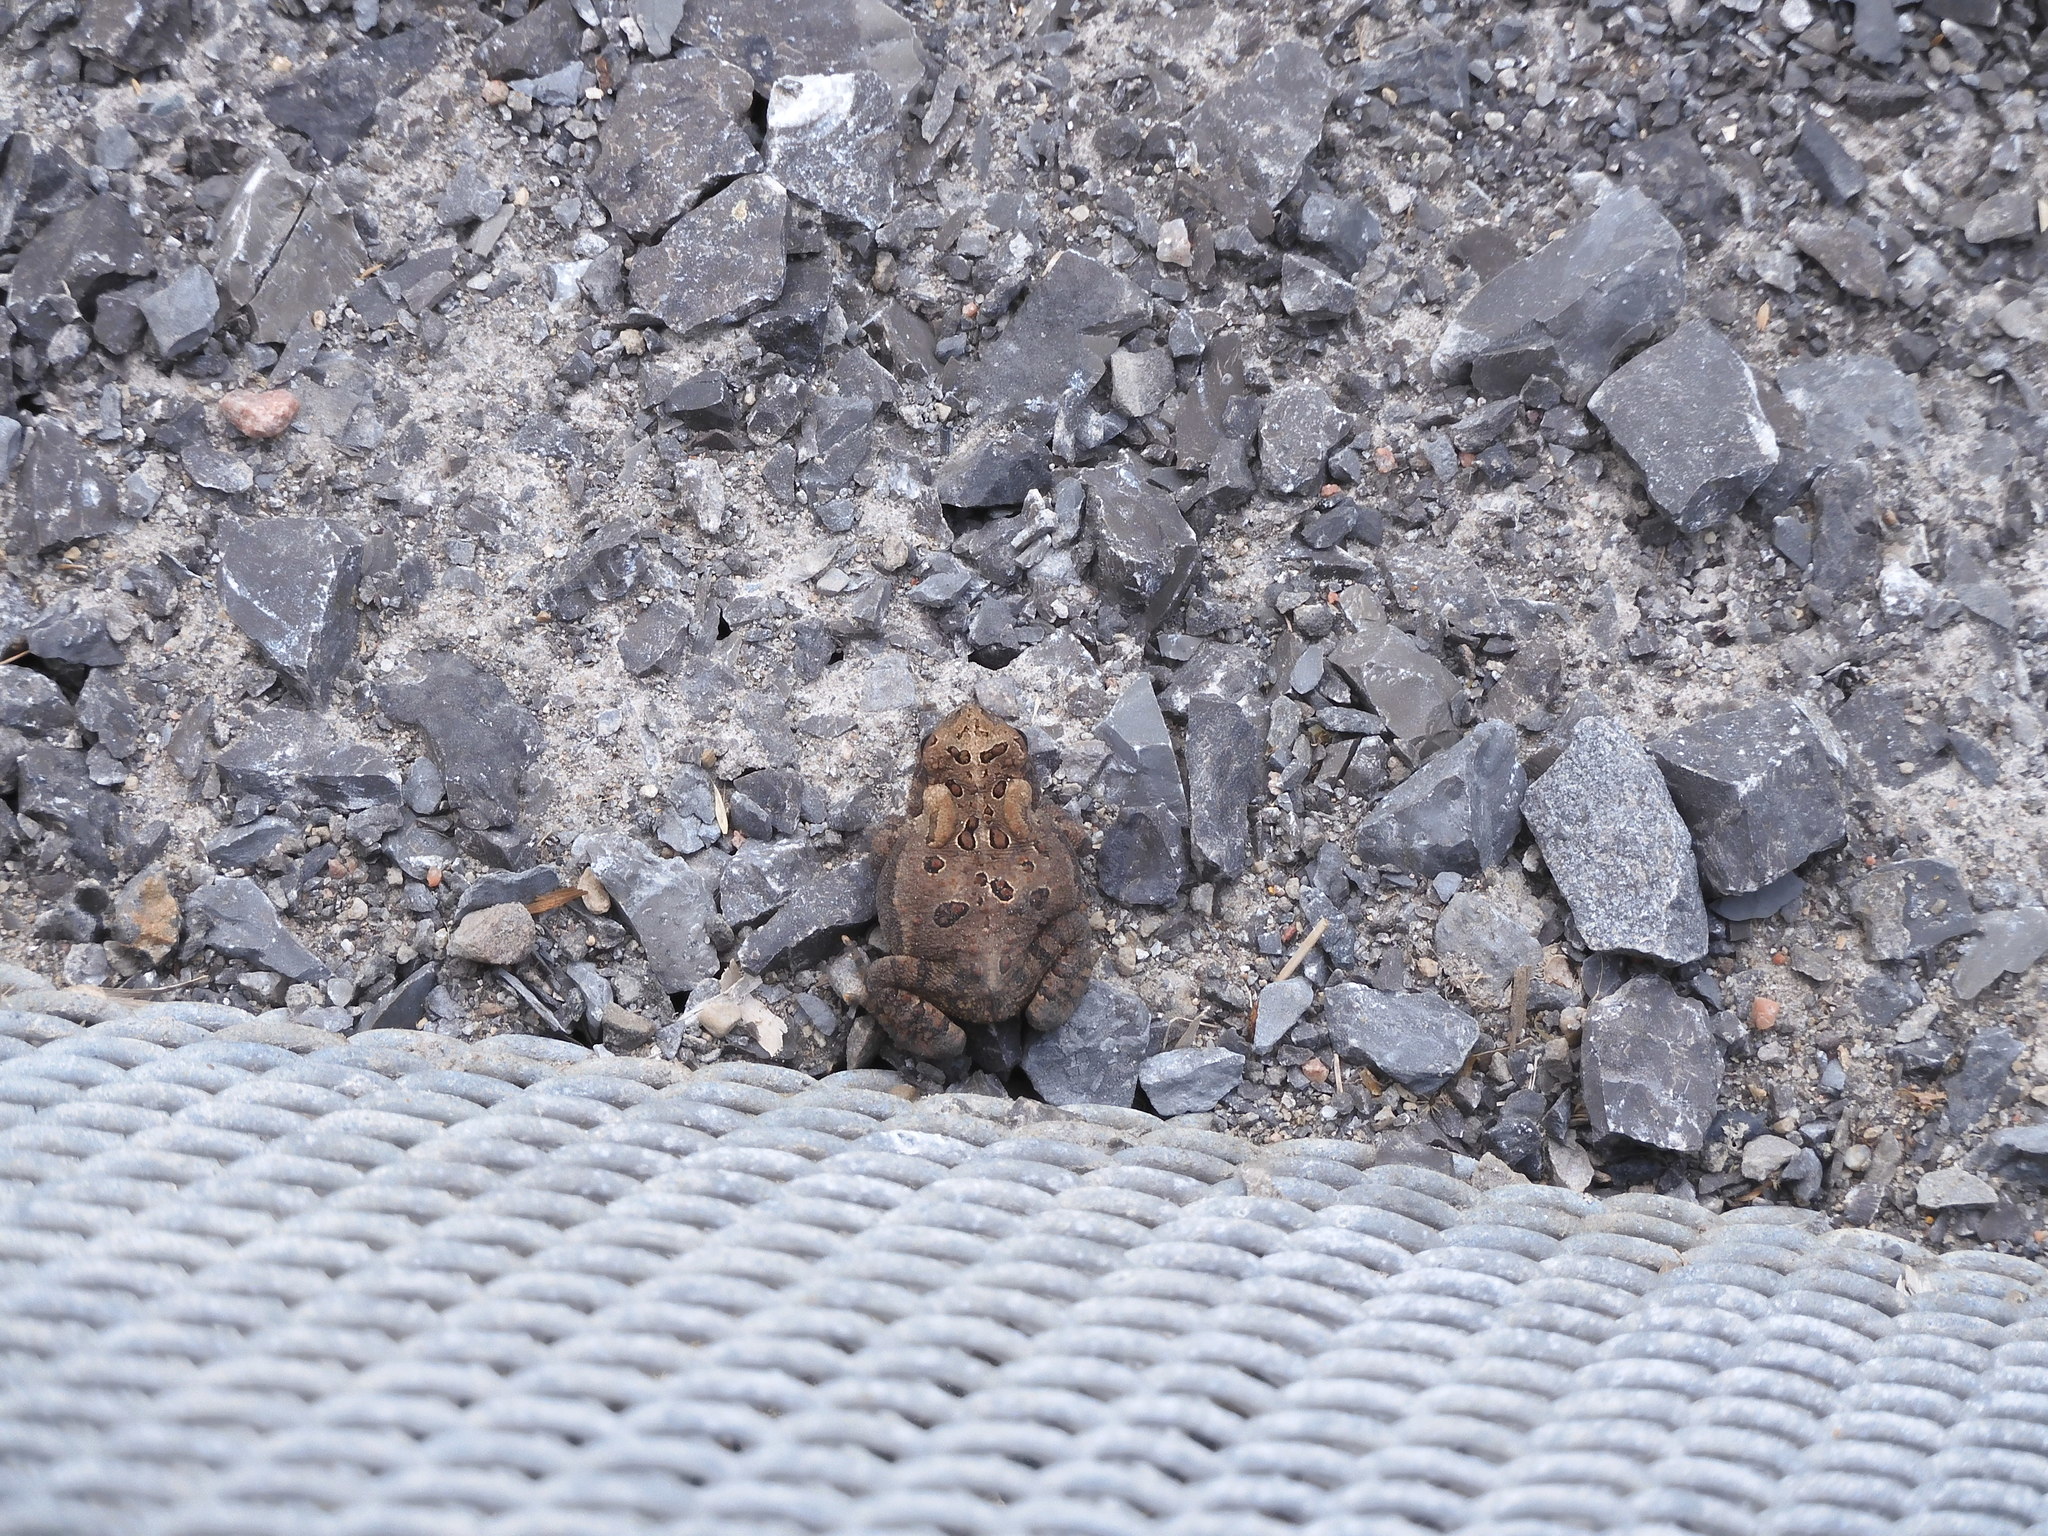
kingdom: Animalia
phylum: Chordata
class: Amphibia
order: Anura
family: Bufonidae
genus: Anaxyrus
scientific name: Anaxyrus americanus
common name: American toad
